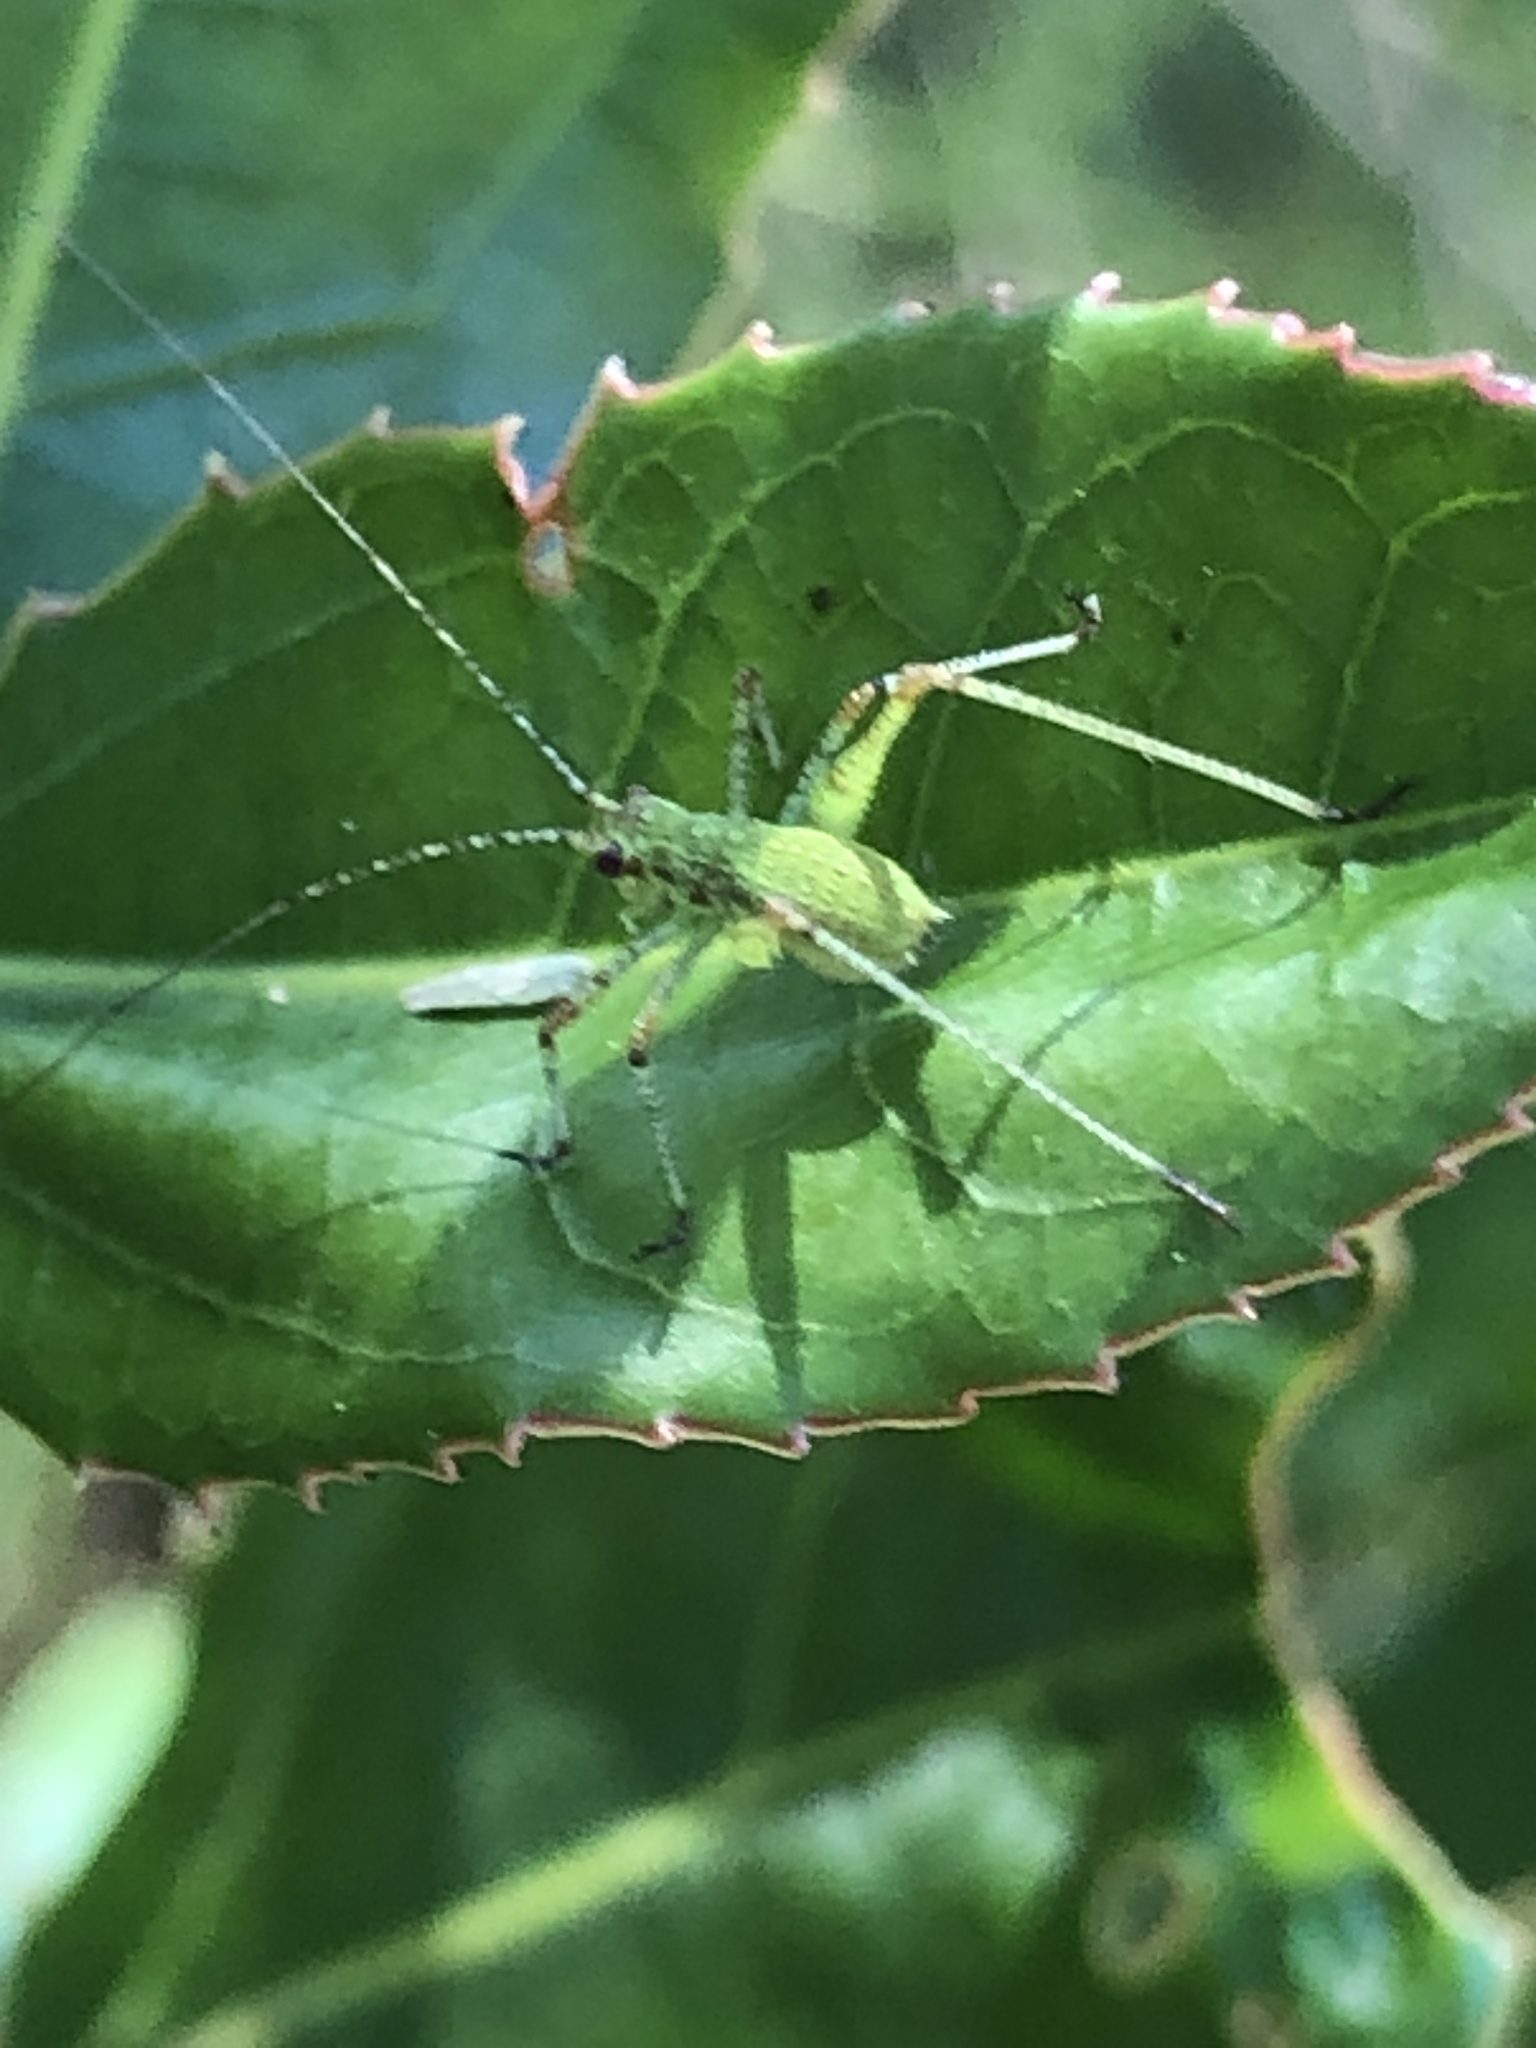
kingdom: Animalia
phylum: Arthropoda
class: Insecta
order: Orthoptera
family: Tettigoniidae
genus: Phaneroptera
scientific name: Phaneroptera nana
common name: Southern sickle bush-cricket
